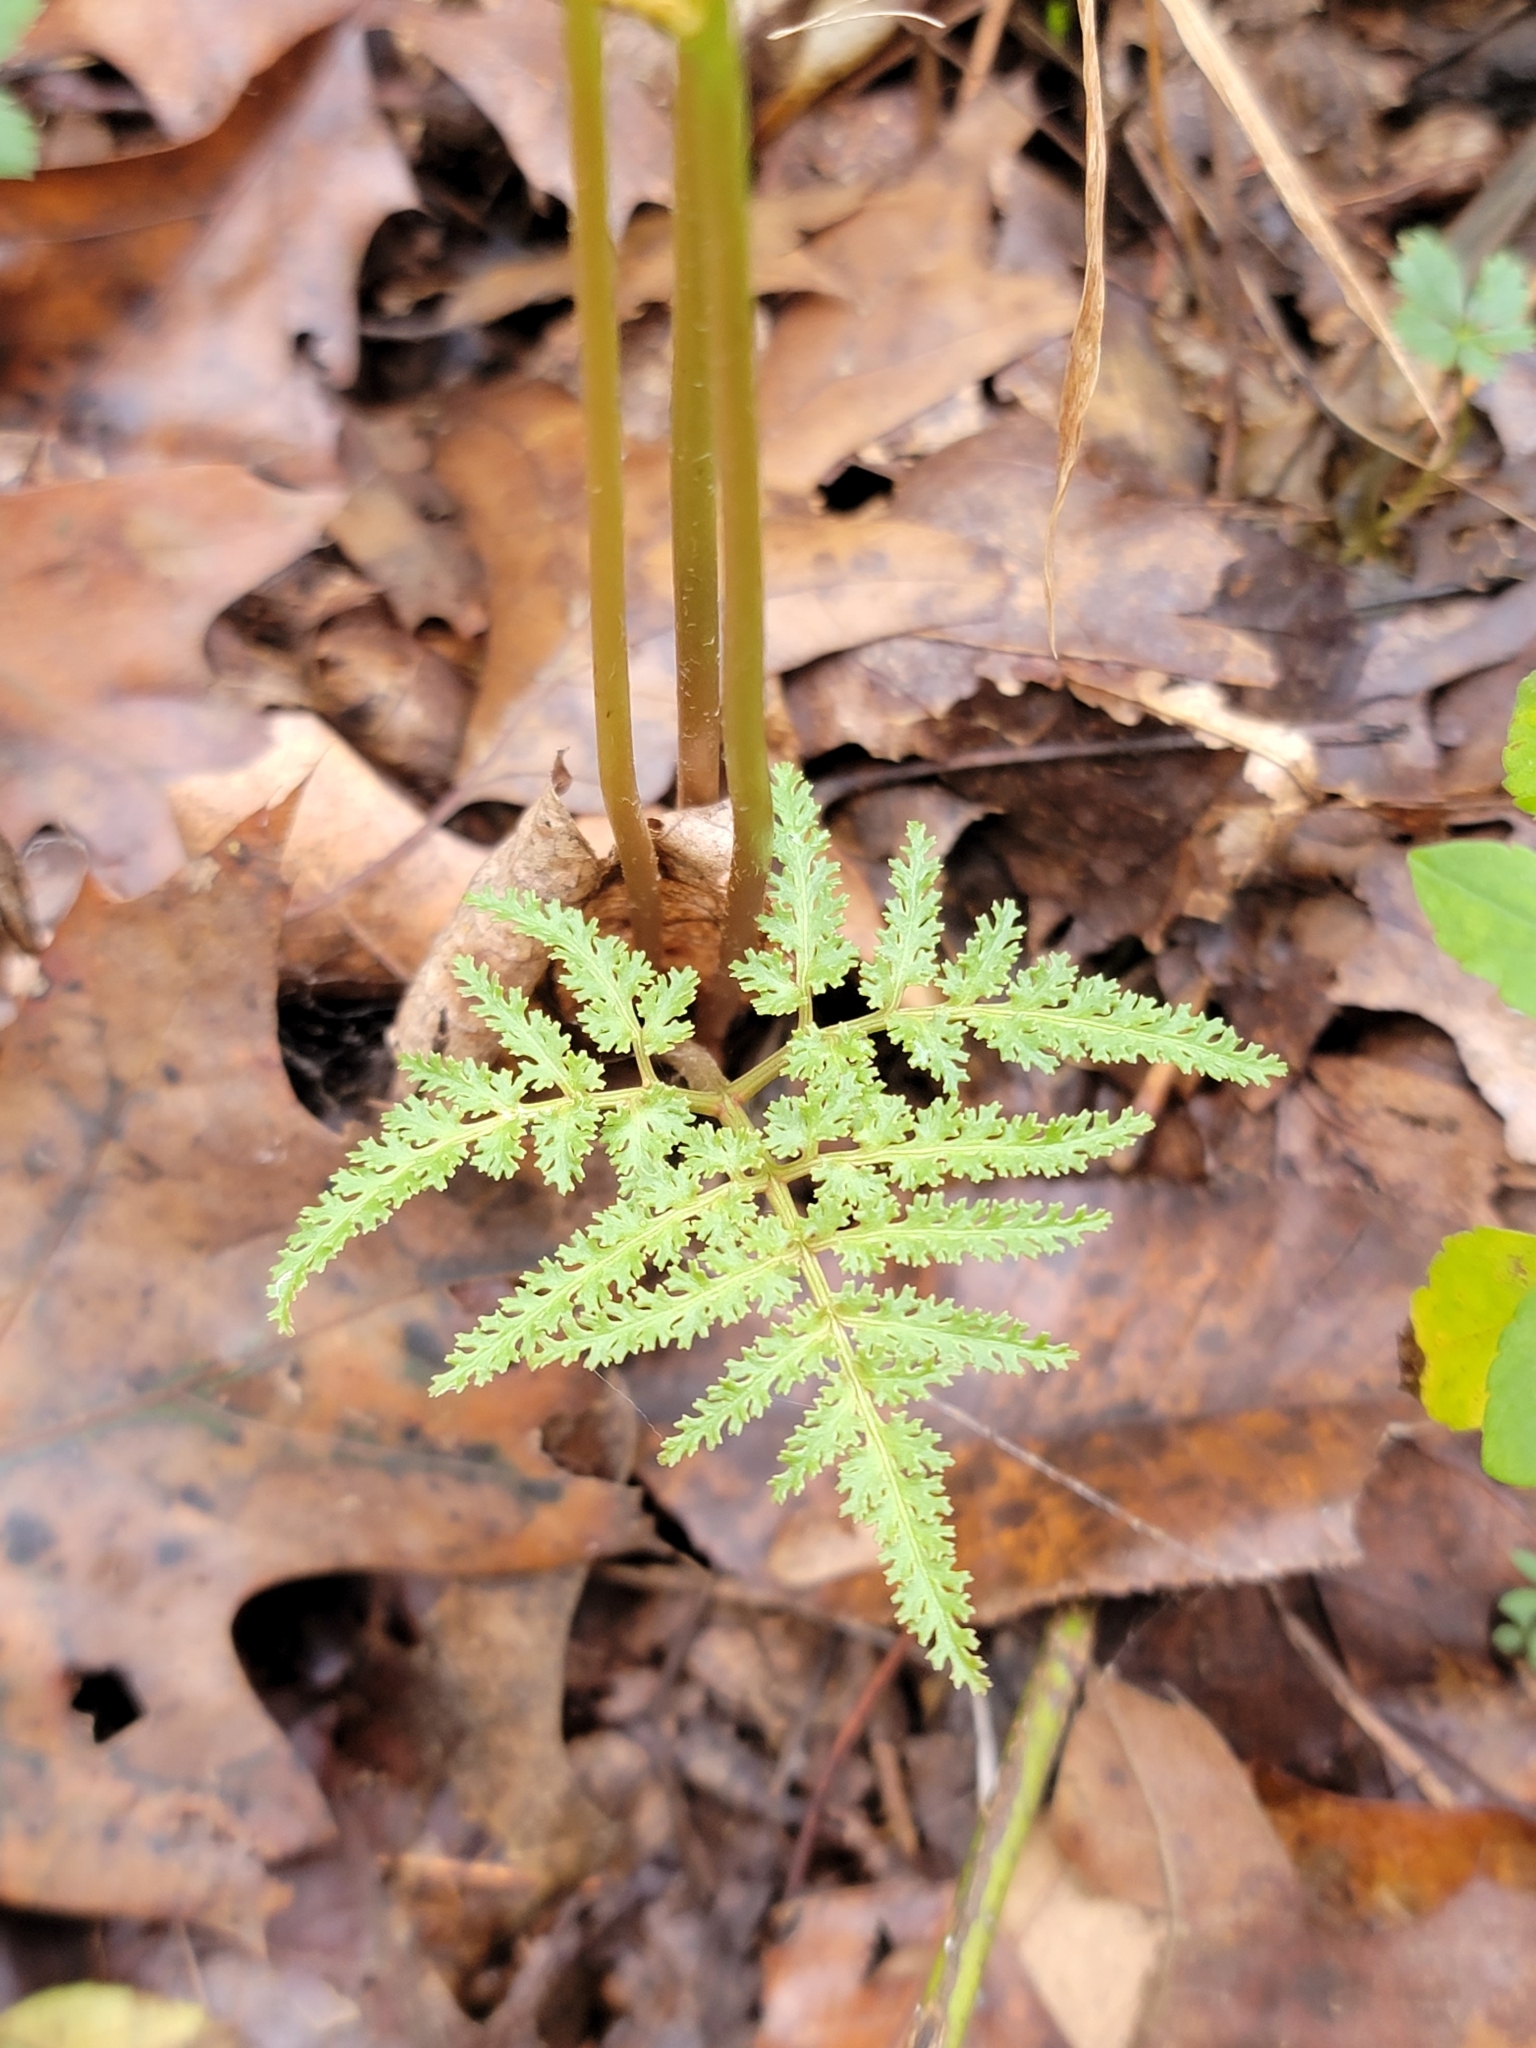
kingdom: Plantae
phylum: Tracheophyta
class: Polypodiopsida
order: Ophioglossales
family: Ophioglossaceae
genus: Sceptridium
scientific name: Sceptridium dissectum
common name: Cut-leaved grapefern
